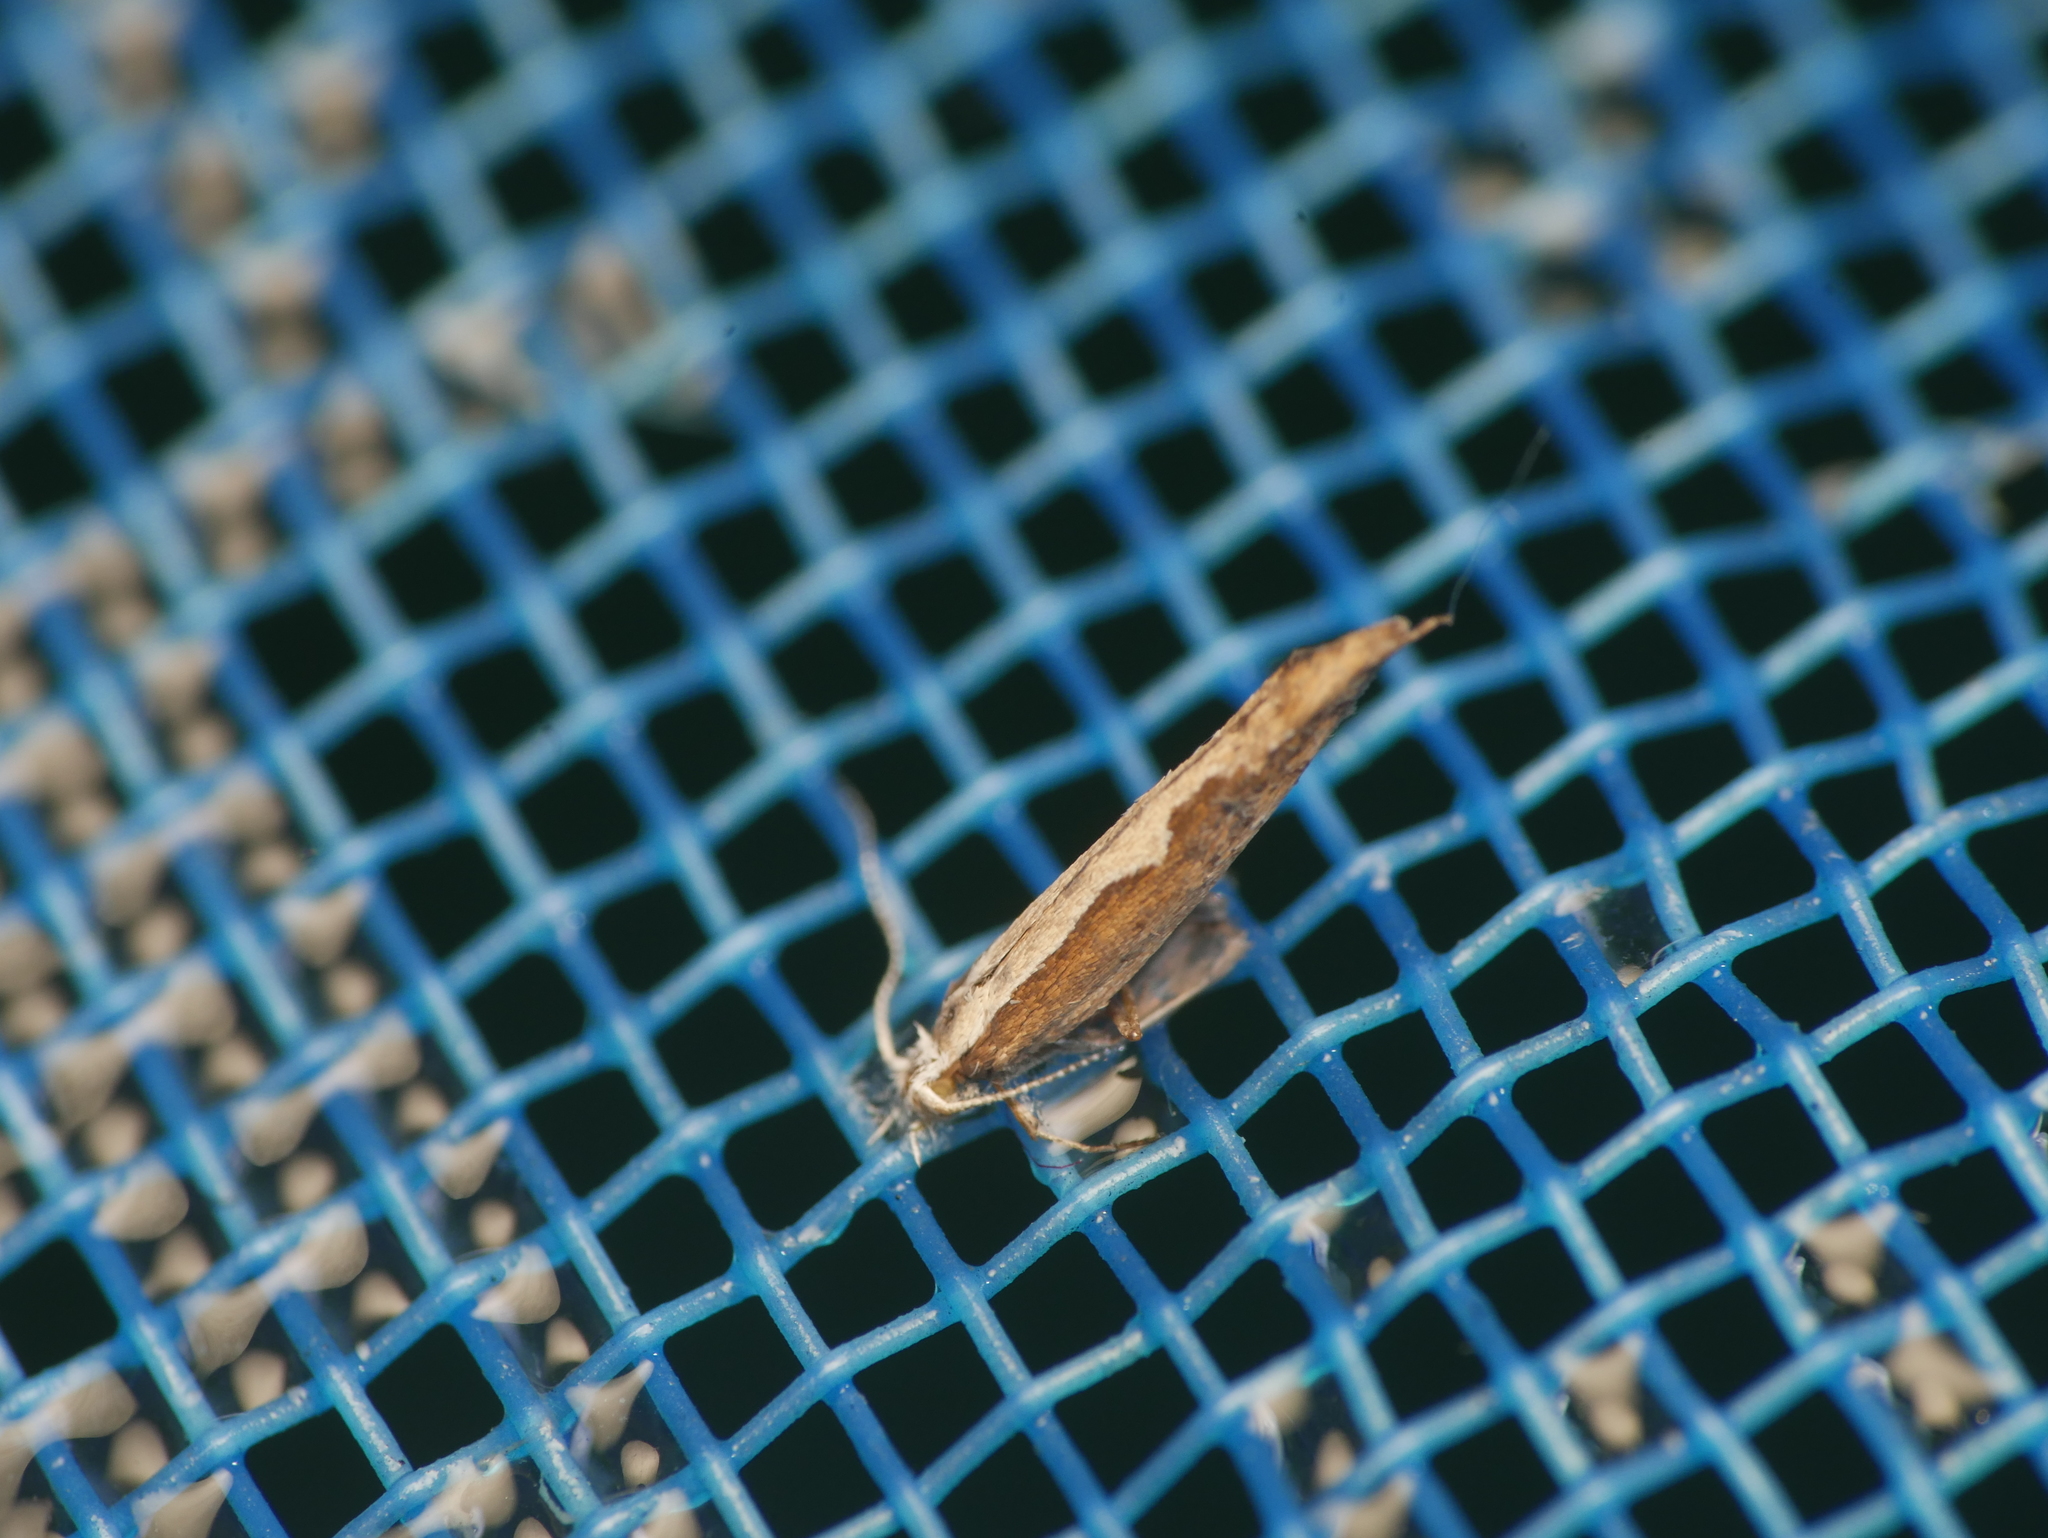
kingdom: Animalia
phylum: Arthropoda
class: Insecta
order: Lepidoptera
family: Plutellidae
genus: Plutella
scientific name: Plutella xylostella
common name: Diamond-back moth
